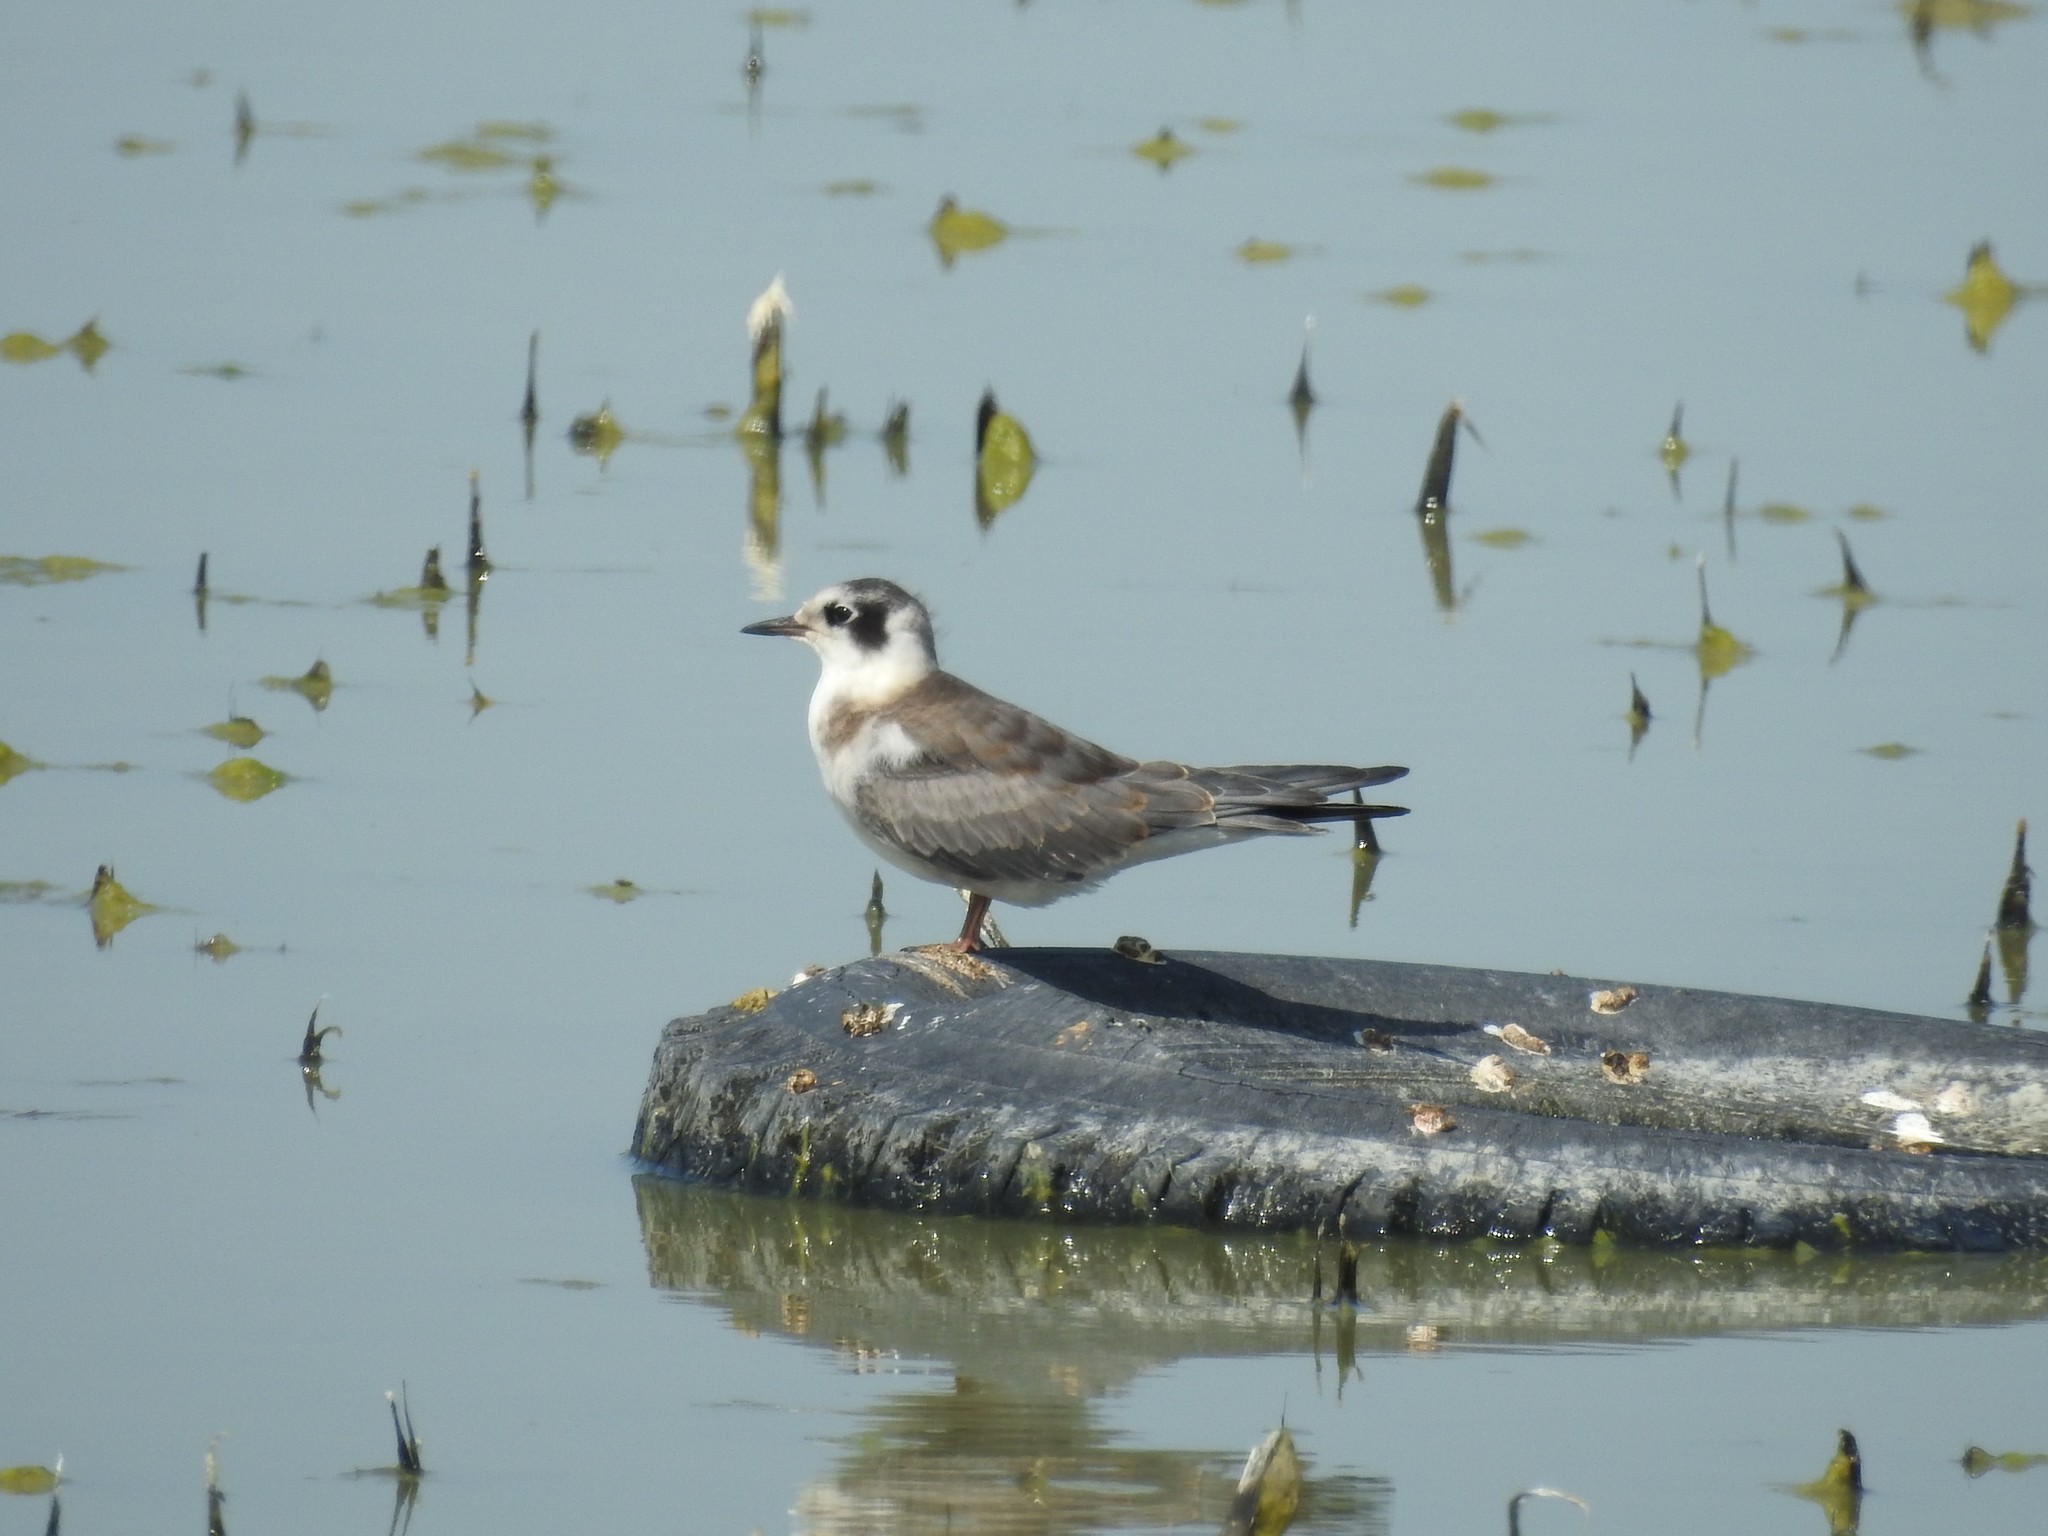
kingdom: Animalia
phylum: Chordata
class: Aves
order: Charadriiformes
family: Laridae
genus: Chlidonias
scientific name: Chlidonias niger
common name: Black tern
